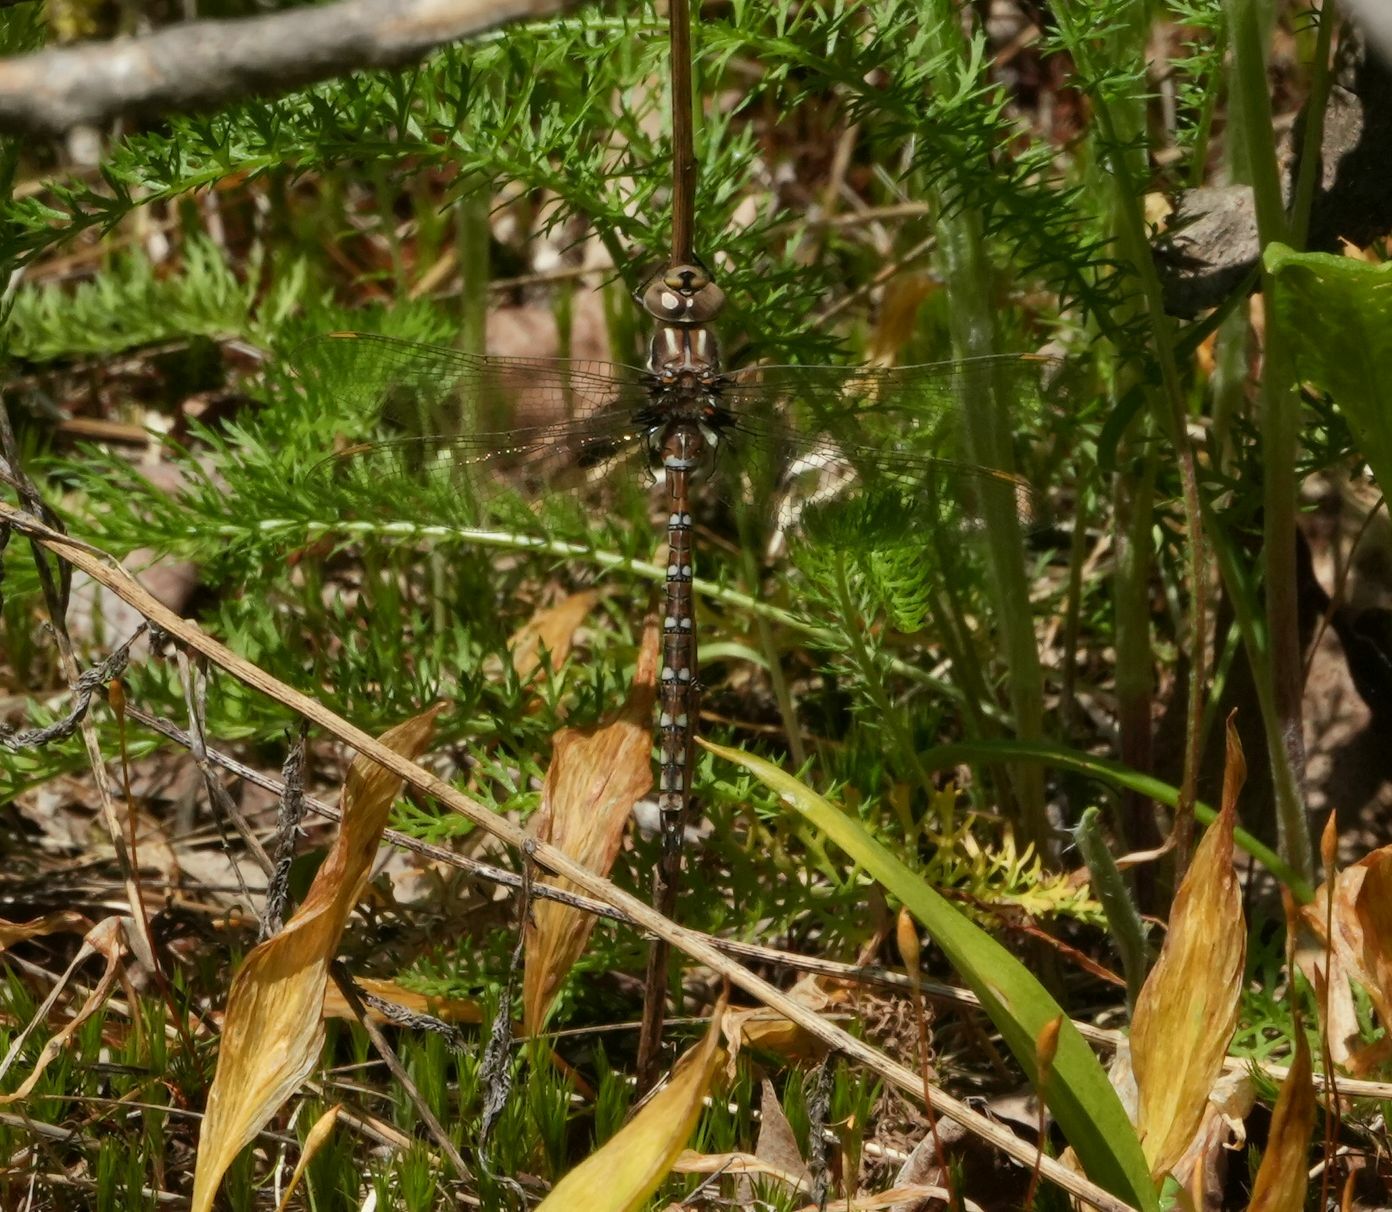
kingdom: Animalia
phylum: Arthropoda
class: Insecta
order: Odonata
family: Aeshnidae
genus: Basiaeschna
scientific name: Basiaeschna janata
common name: Springtime darner
